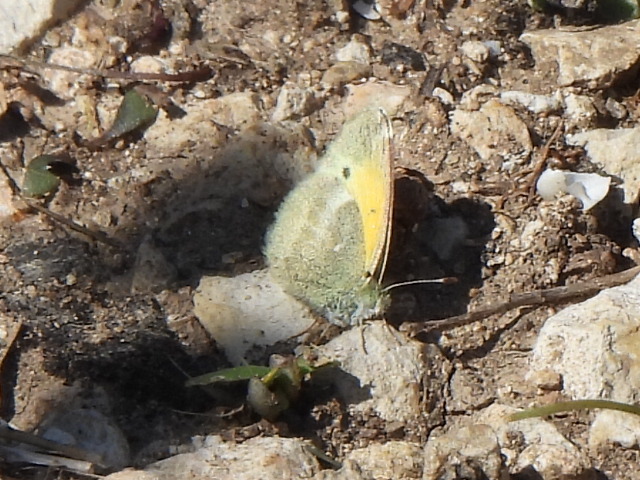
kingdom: Animalia
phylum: Arthropoda
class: Insecta
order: Lepidoptera
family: Pieridae
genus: Nathalis
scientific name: Nathalis iole
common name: Dainty sulphur
